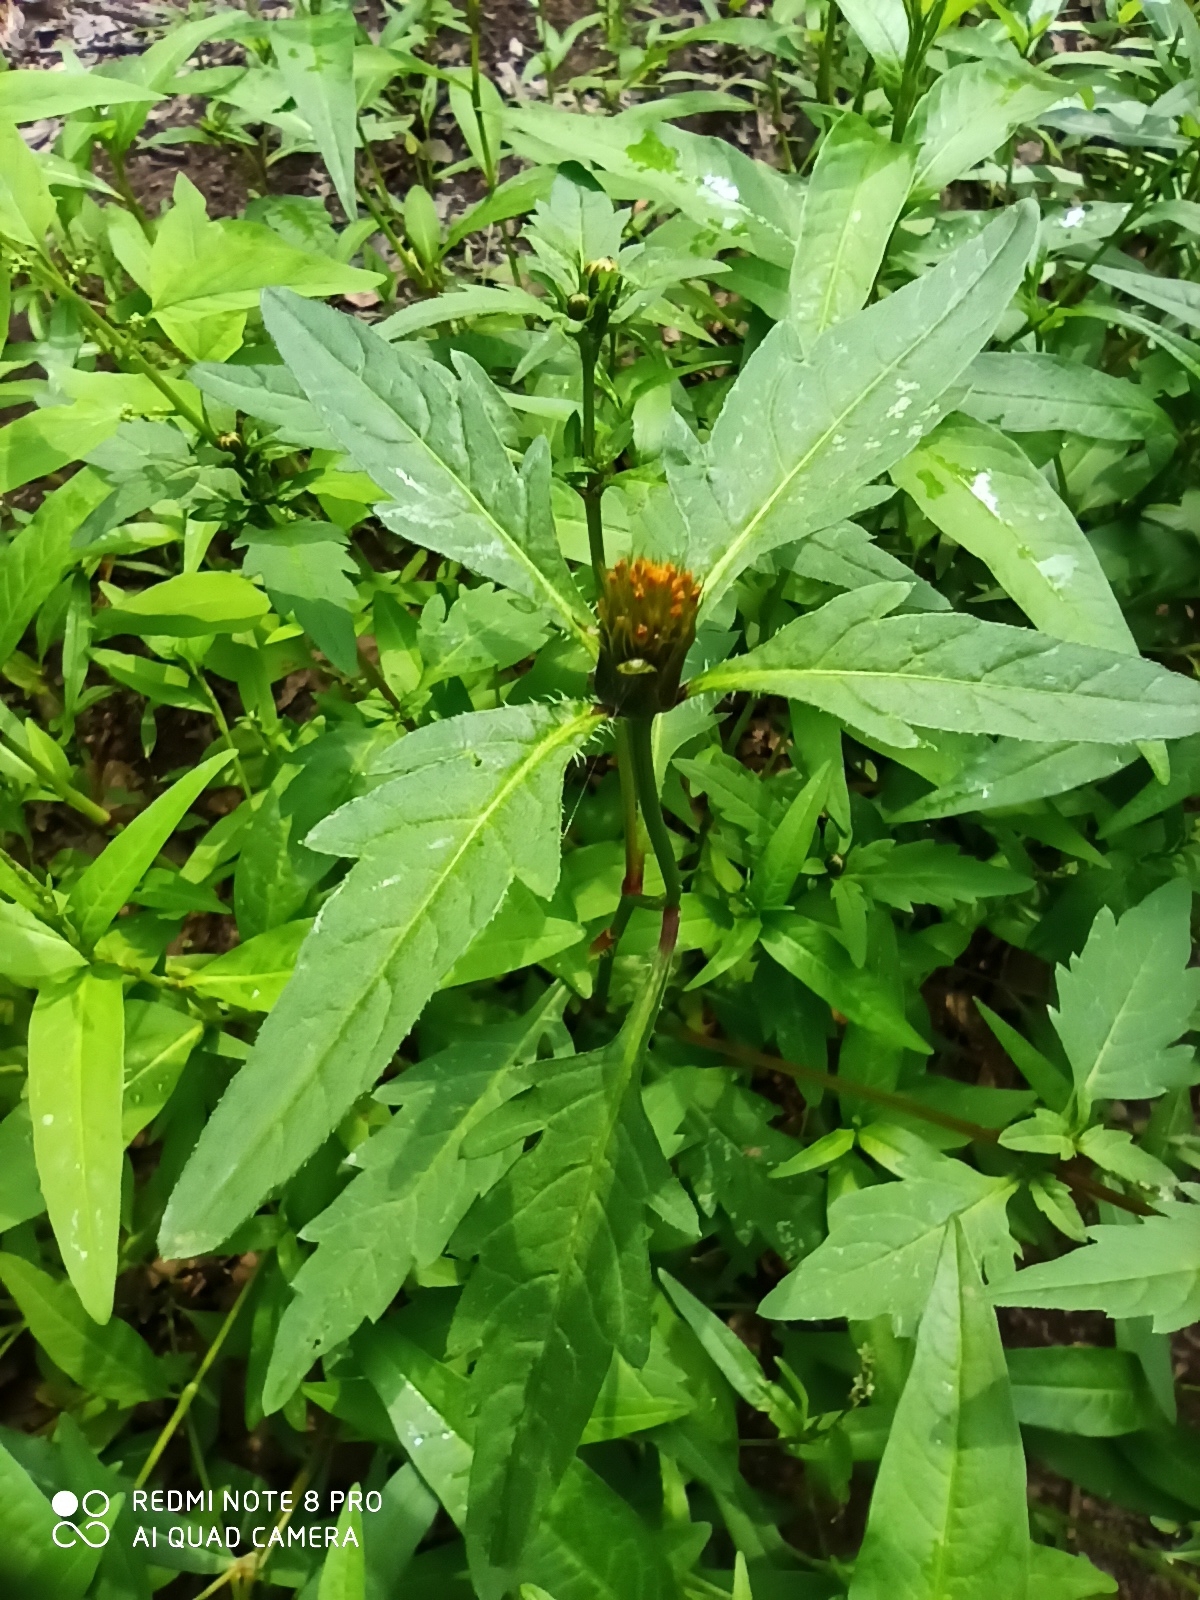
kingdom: Plantae
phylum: Tracheophyta
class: Magnoliopsida
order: Asterales
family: Asteraceae
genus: Bidens
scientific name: Bidens tripartita
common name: Trifid bur-marigold
